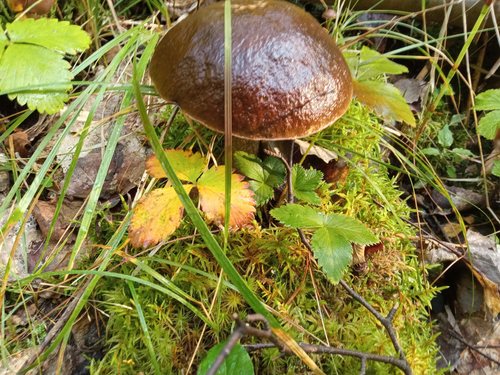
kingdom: Fungi
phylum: Basidiomycota
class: Agaricomycetes
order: Boletales
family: Boletaceae
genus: Leccinum
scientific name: Leccinum
